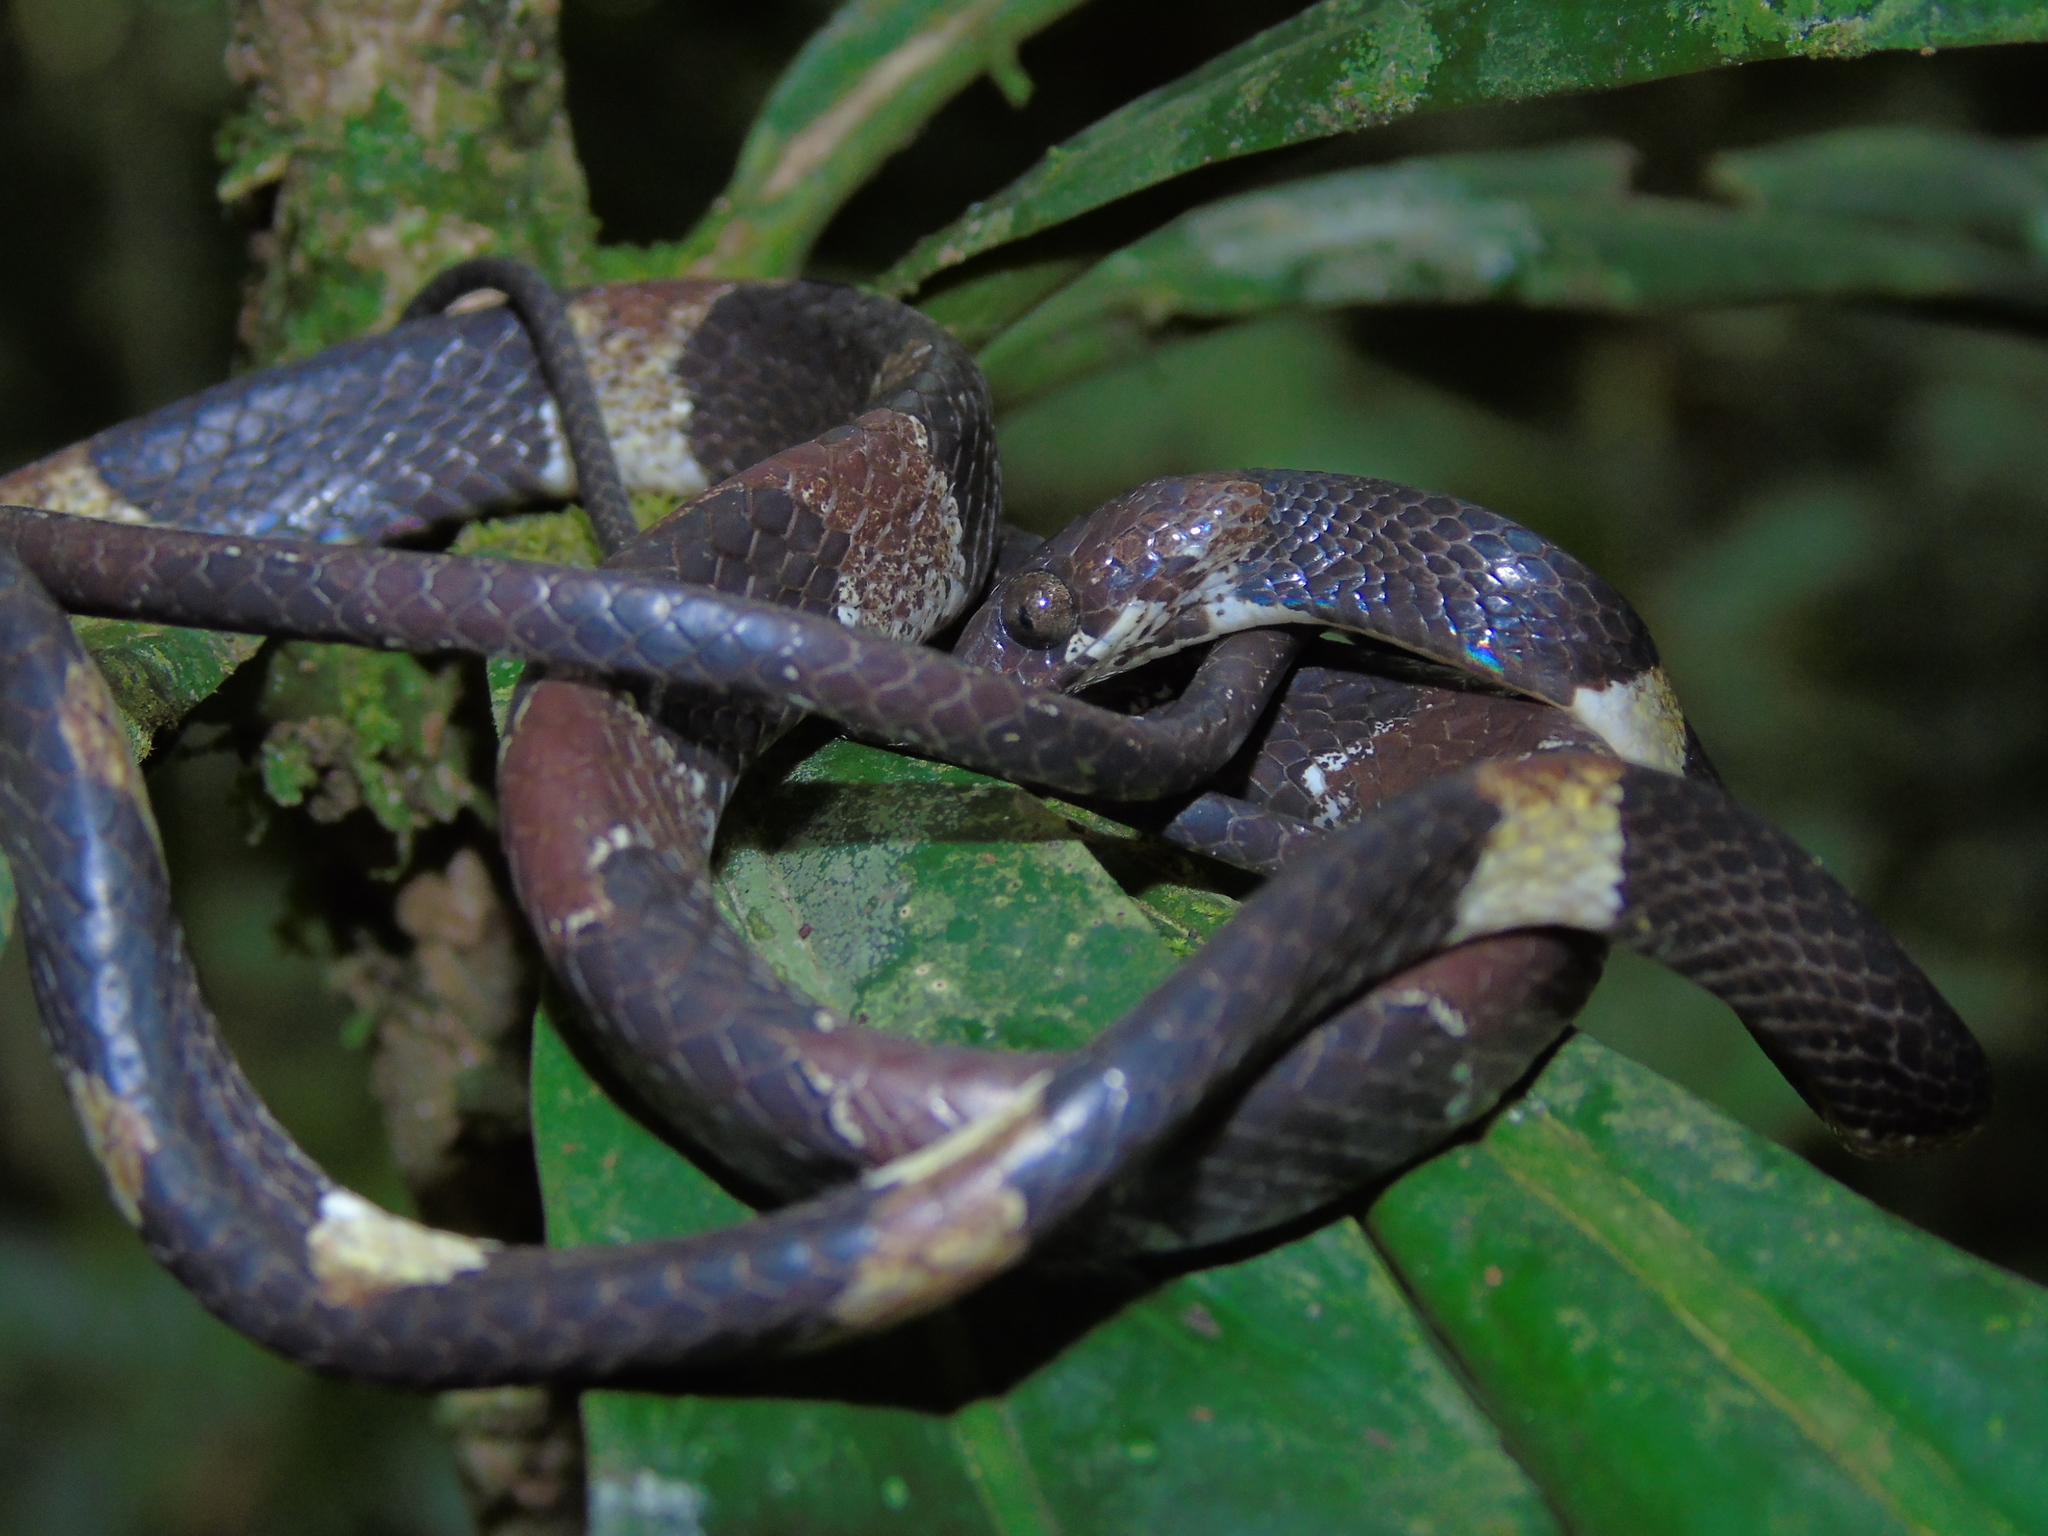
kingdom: Animalia
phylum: Chordata
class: Squamata
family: Colubridae
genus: Dipsas
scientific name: Dipsas aparatiritos
